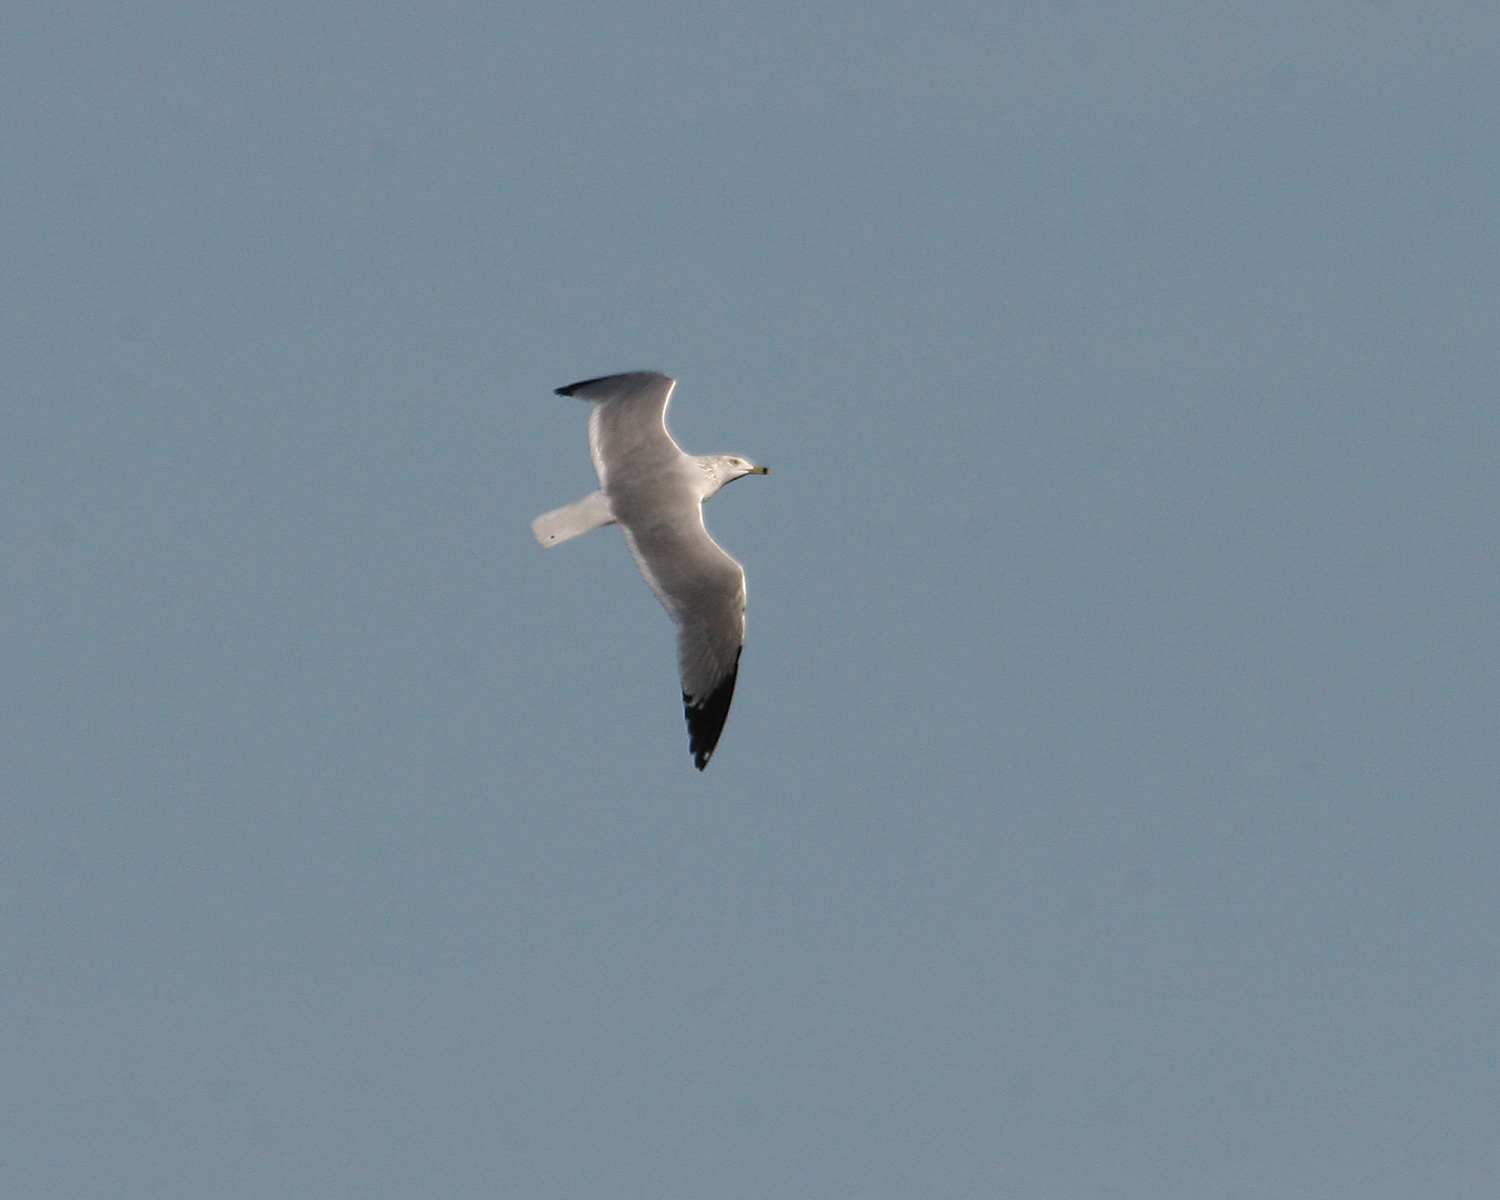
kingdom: Animalia
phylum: Chordata
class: Aves
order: Charadriiformes
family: Laridae
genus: Larus
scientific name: Larus delawarensis
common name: Ring-billed gull
